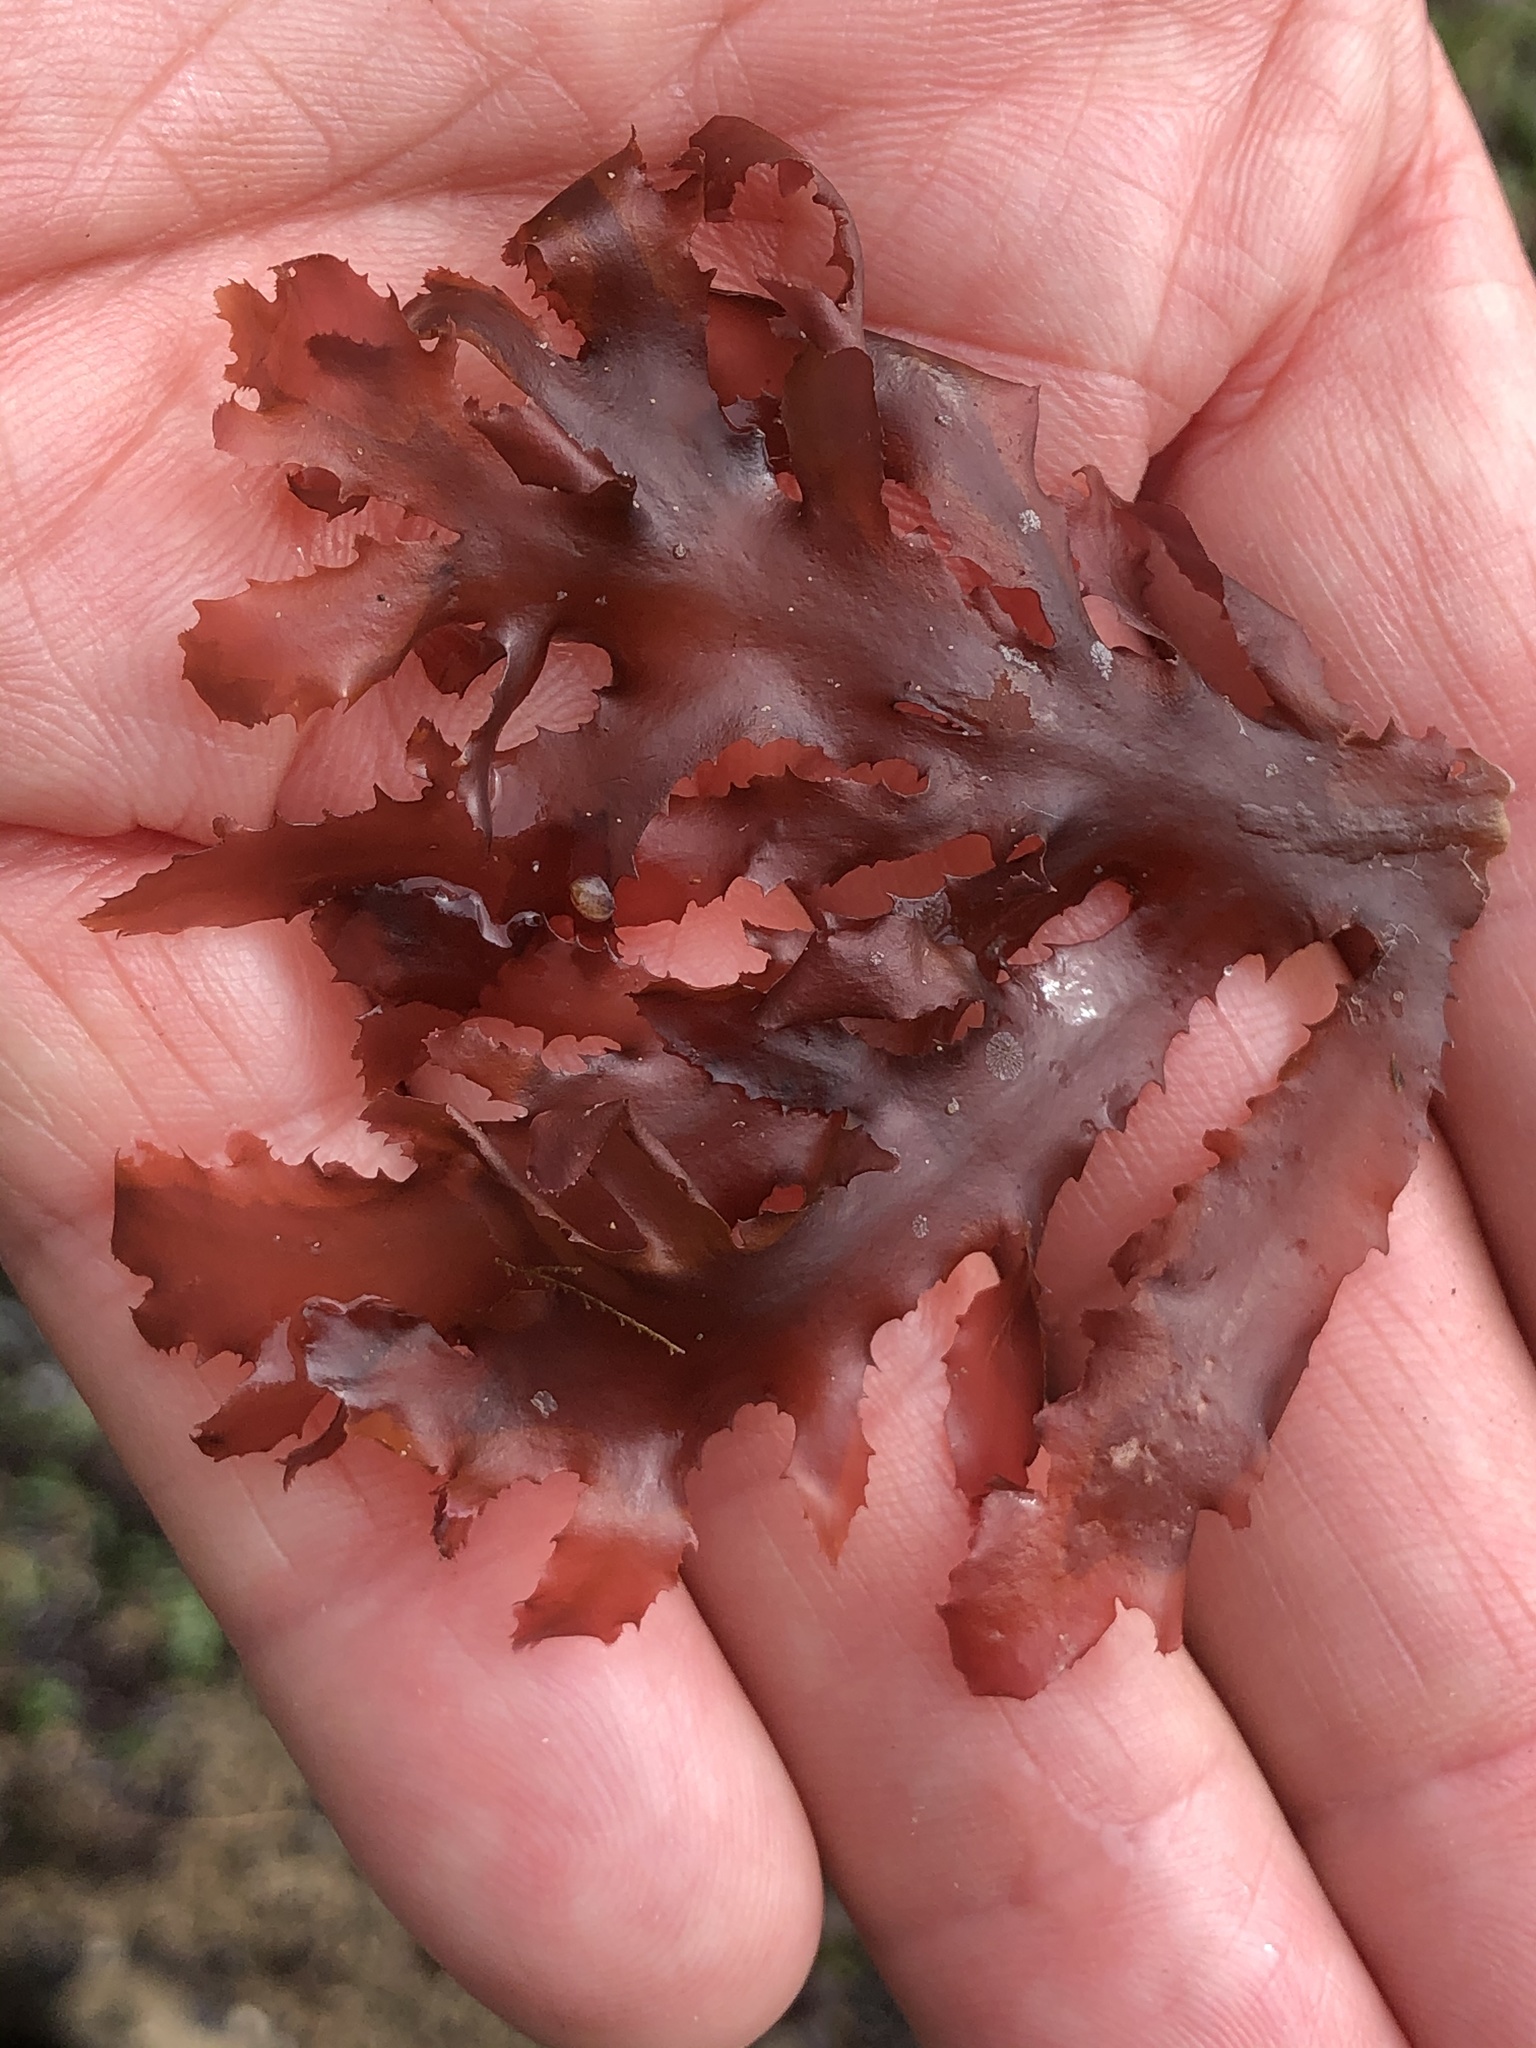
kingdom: Plantae
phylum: Rhodophyta
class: Florideophyceae
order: Ceramiales
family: Delesseriaceae
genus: Nienburgia
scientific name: Nienburgia andersoniana
